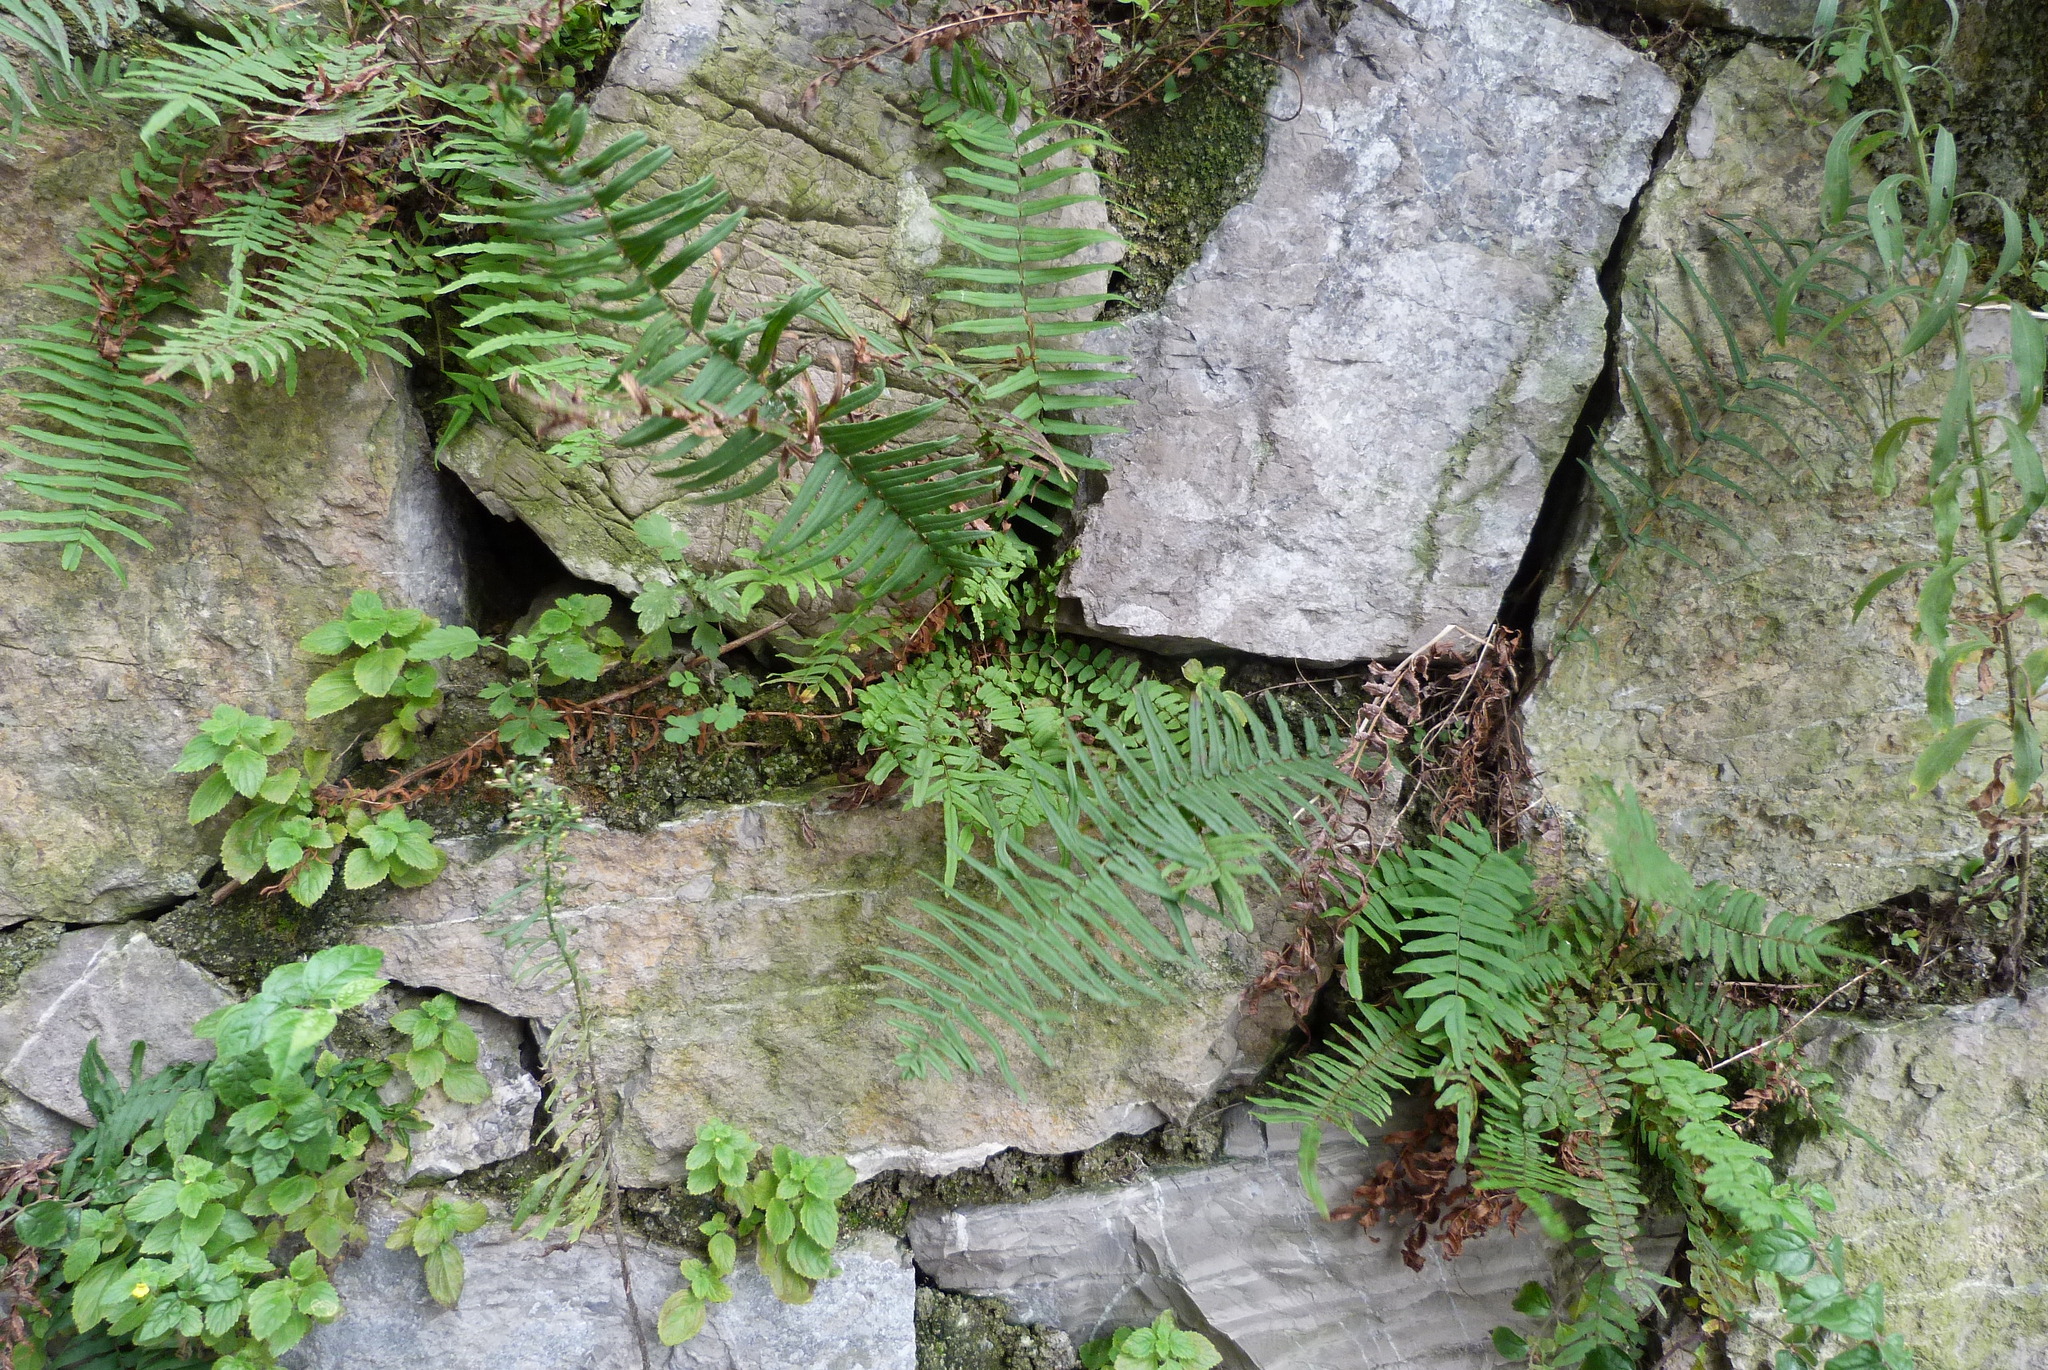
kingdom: Plantae
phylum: Tracheophyta
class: Polypodiopsida
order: Polypodiales
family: Pteridaceae
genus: Pteris
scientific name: Pteris vittata
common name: Ladder brake
